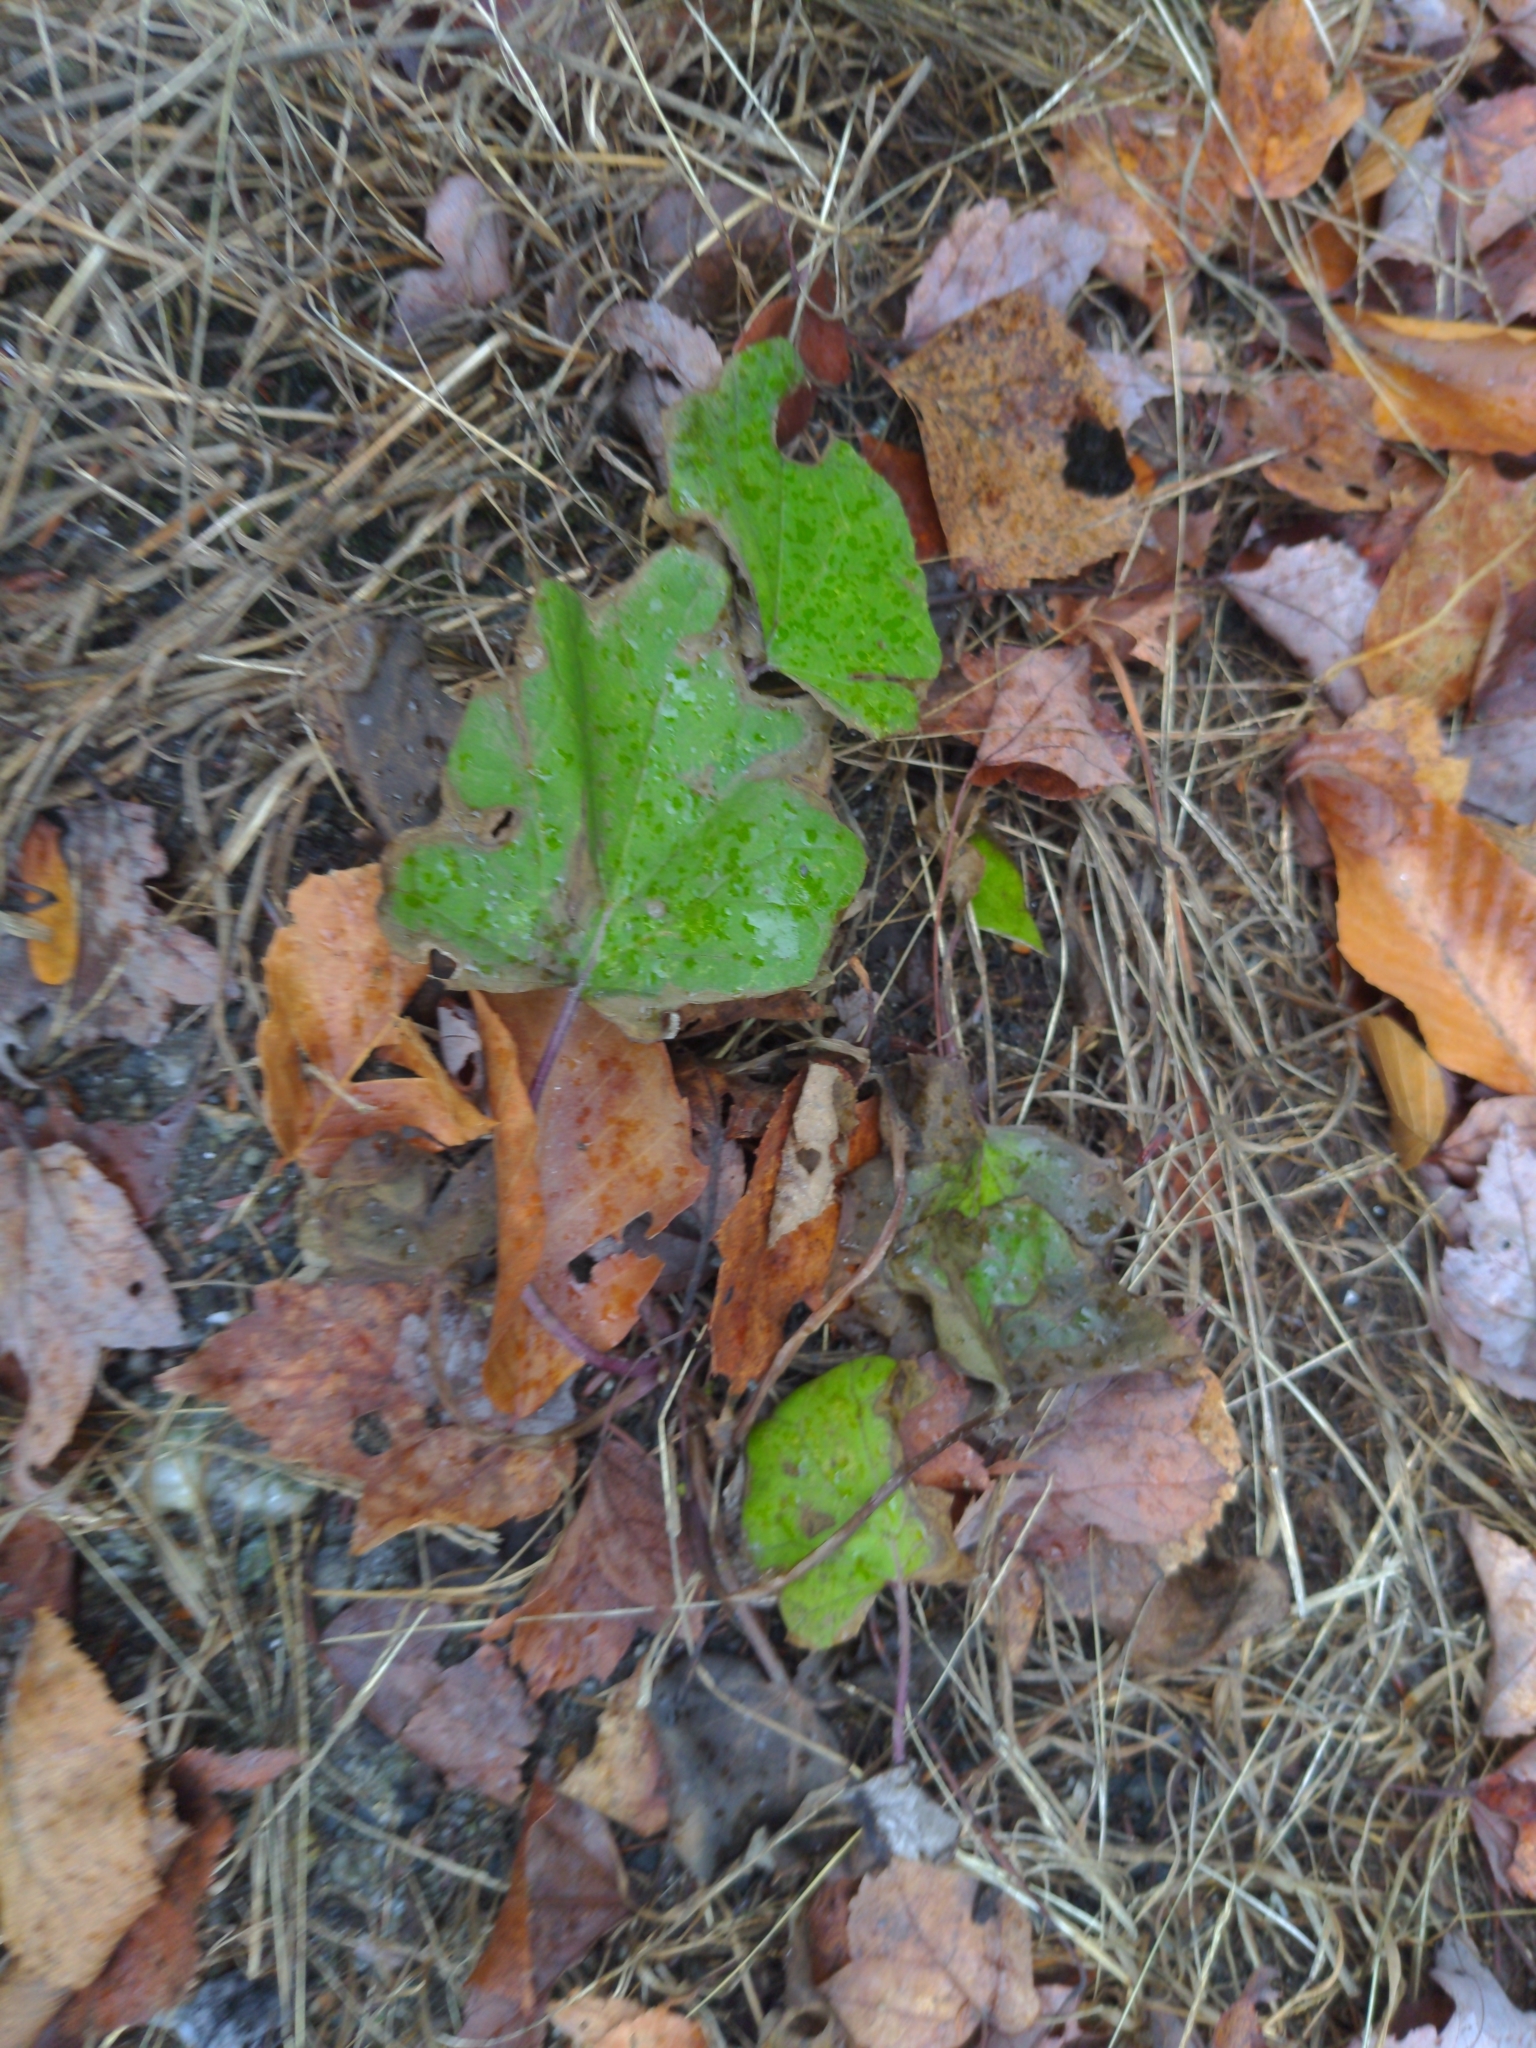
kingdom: Plantae
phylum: Tracheophyta
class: Magnoliopsida
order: Asterales
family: Asteraceae
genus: Tussilago
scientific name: Tussilago farfara
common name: Coltsfoot
